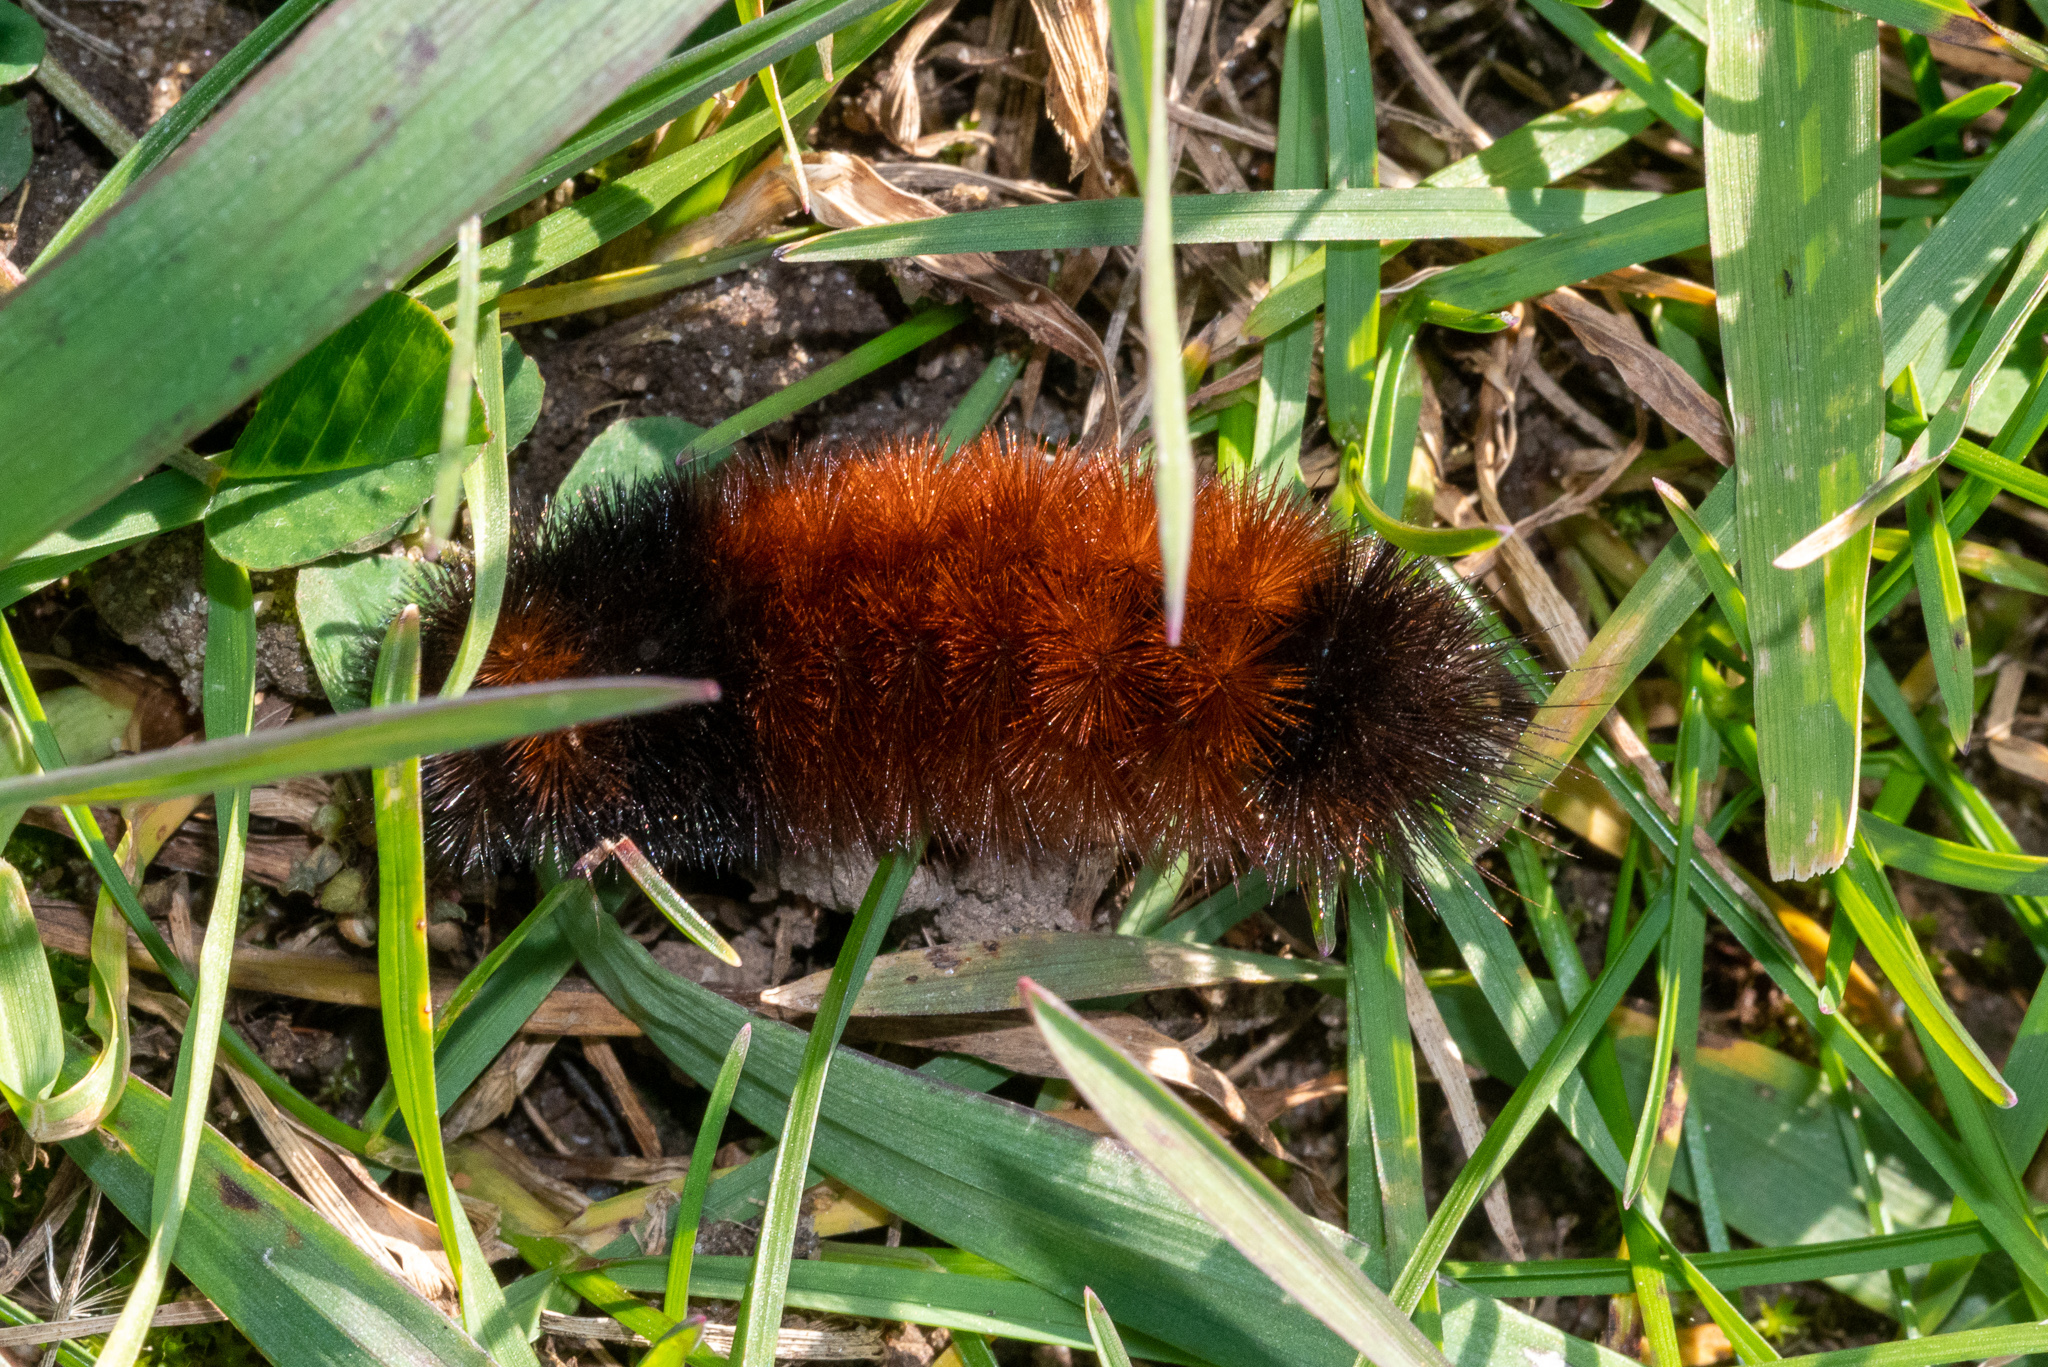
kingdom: Animalia
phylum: Arthropoda
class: Insecta
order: Lepidoptera
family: Erebidae
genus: Pyrrharctia
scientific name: Pyrrharctia isabella
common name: Isabella tiger moth
